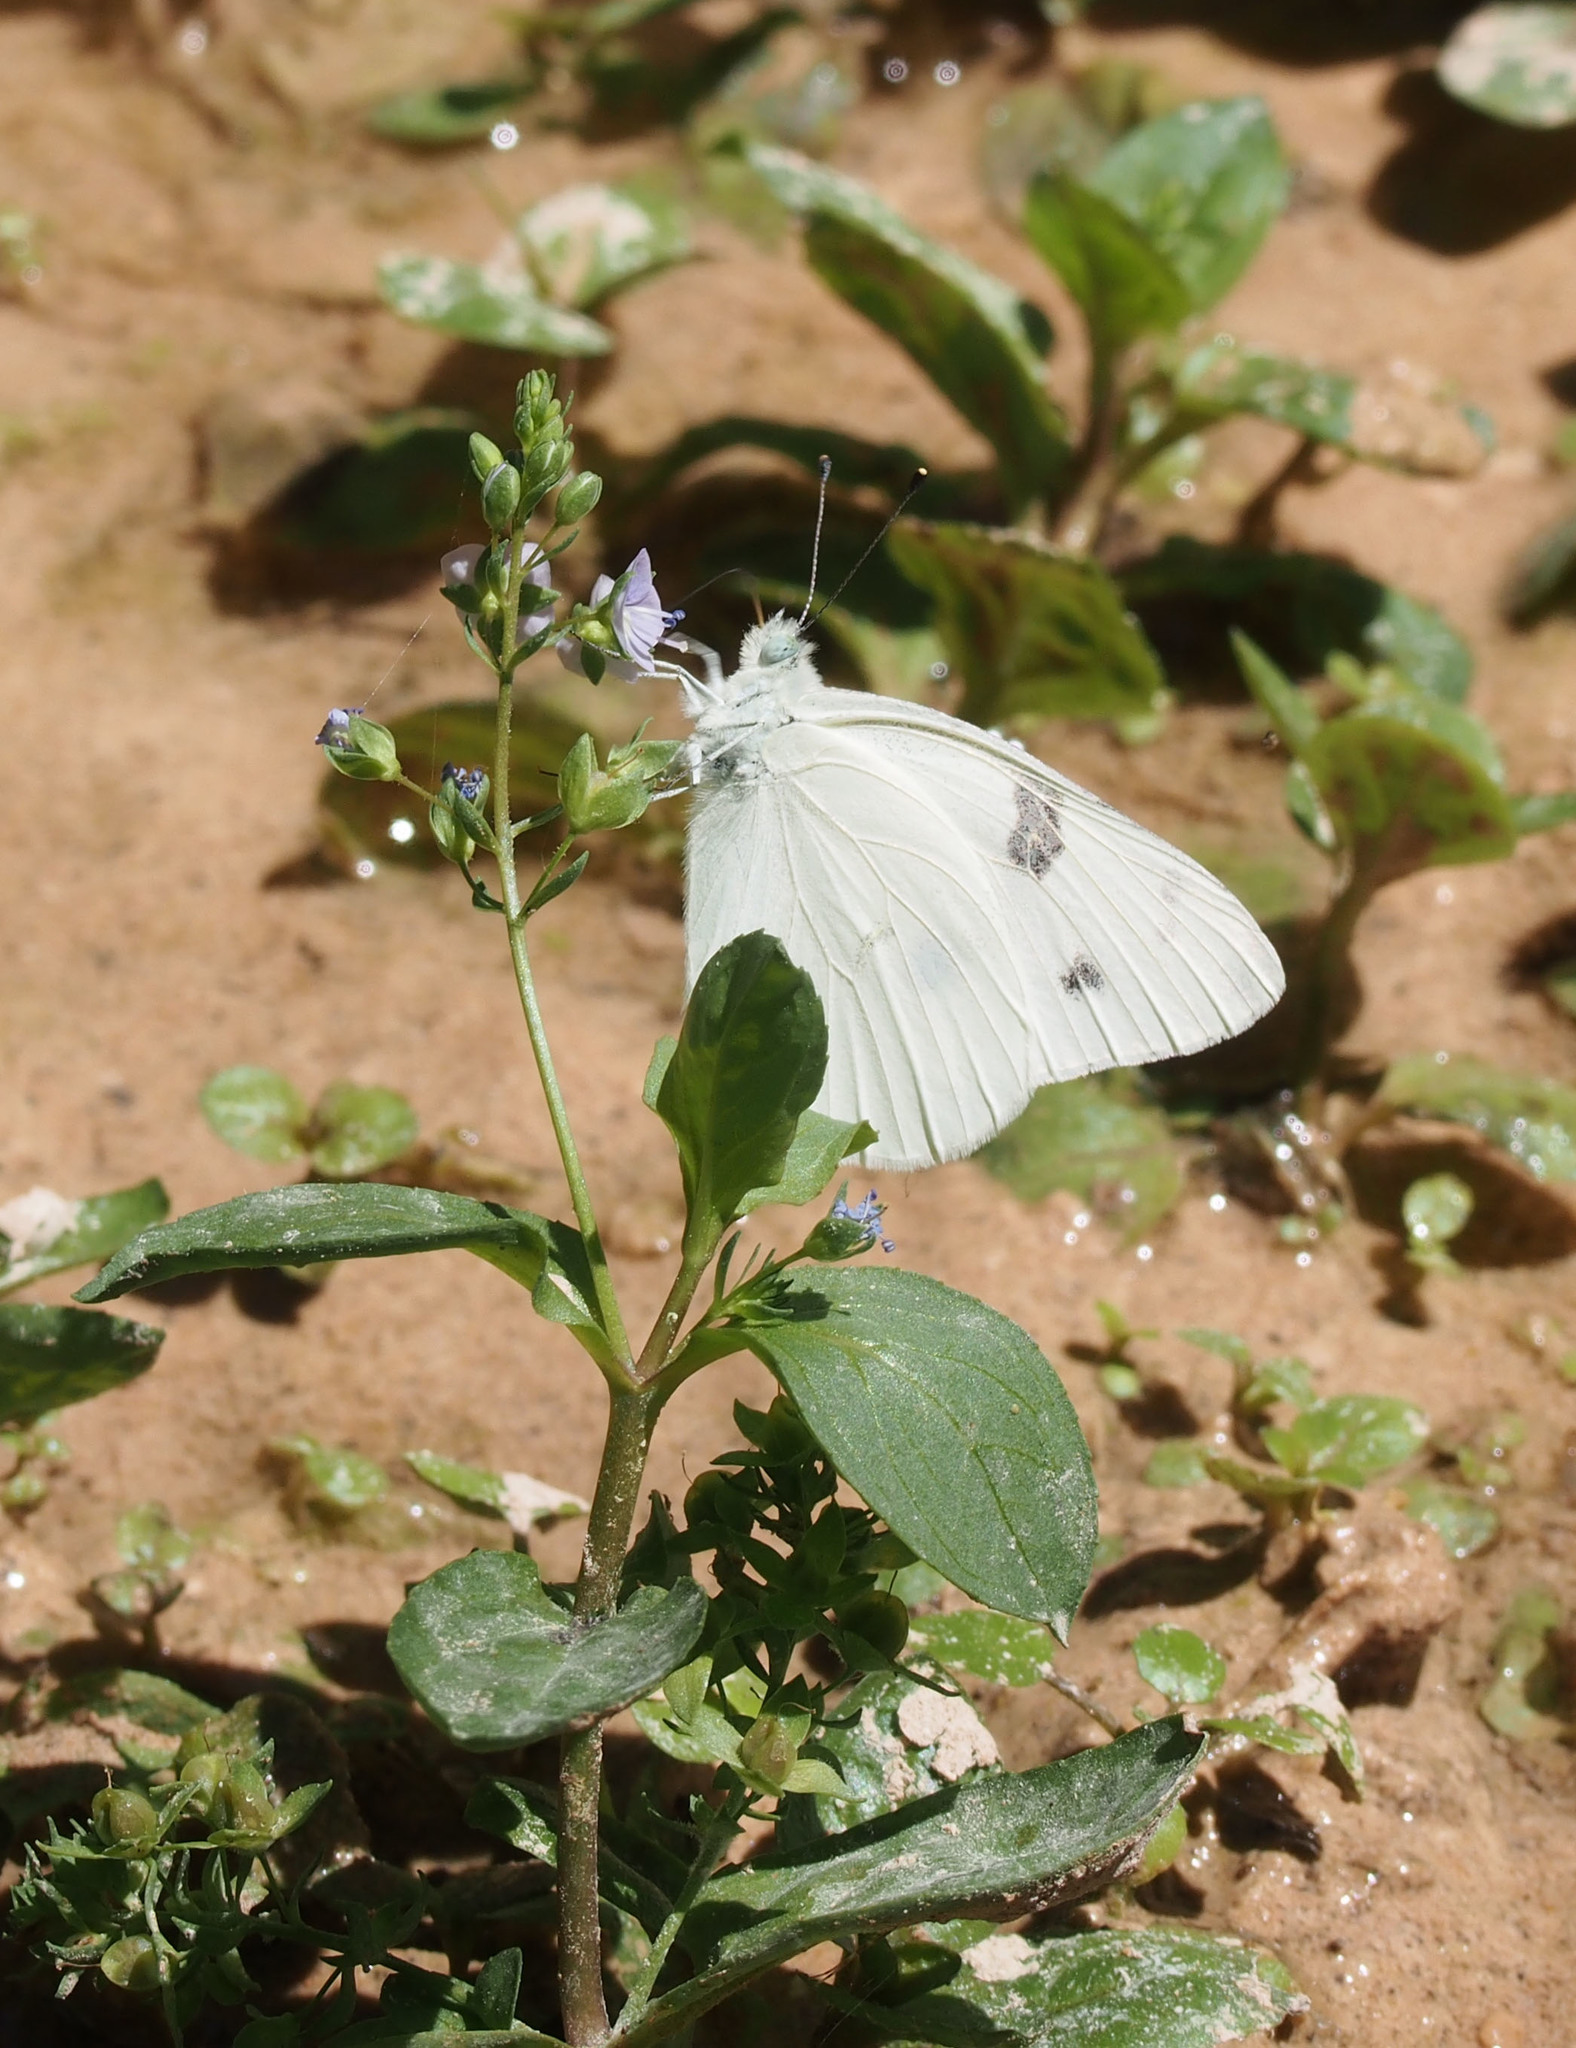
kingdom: Animalia
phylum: Arthropoda
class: Insecta
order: Lepidoptera
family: Pieridae
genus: Pontia
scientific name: Pontia protodice
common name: Checkered white
